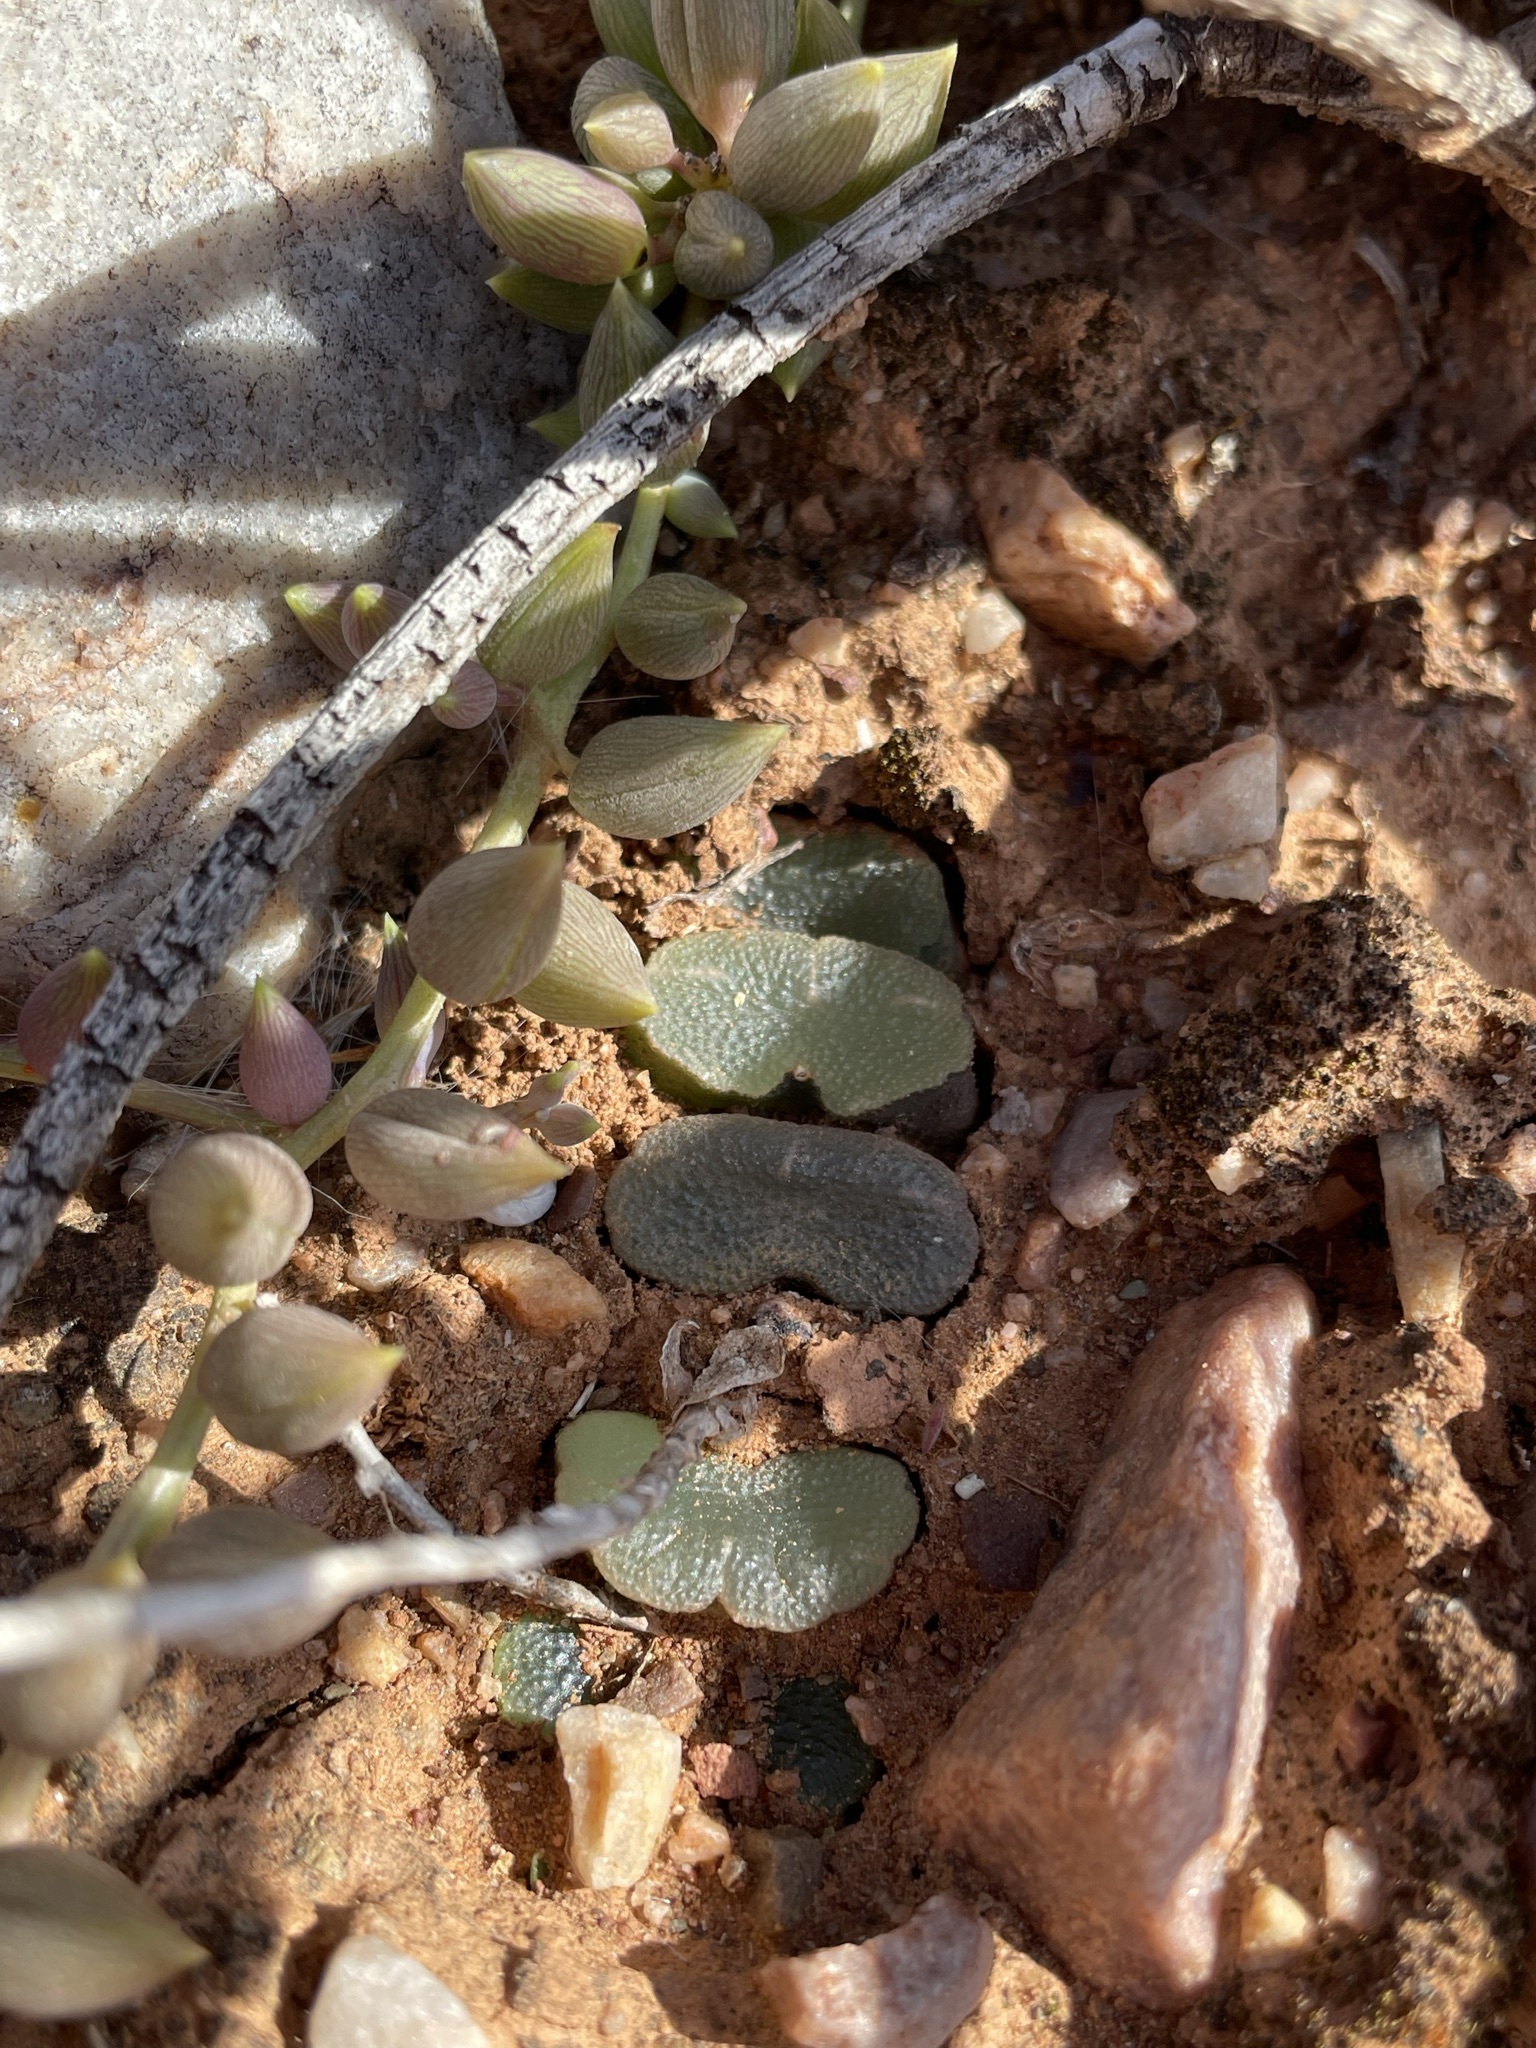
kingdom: Plantae
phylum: Tracheophyta
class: Liliopsida
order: Asparagales
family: Asphodelaceae
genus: Haworthia
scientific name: Haworthia truncata
